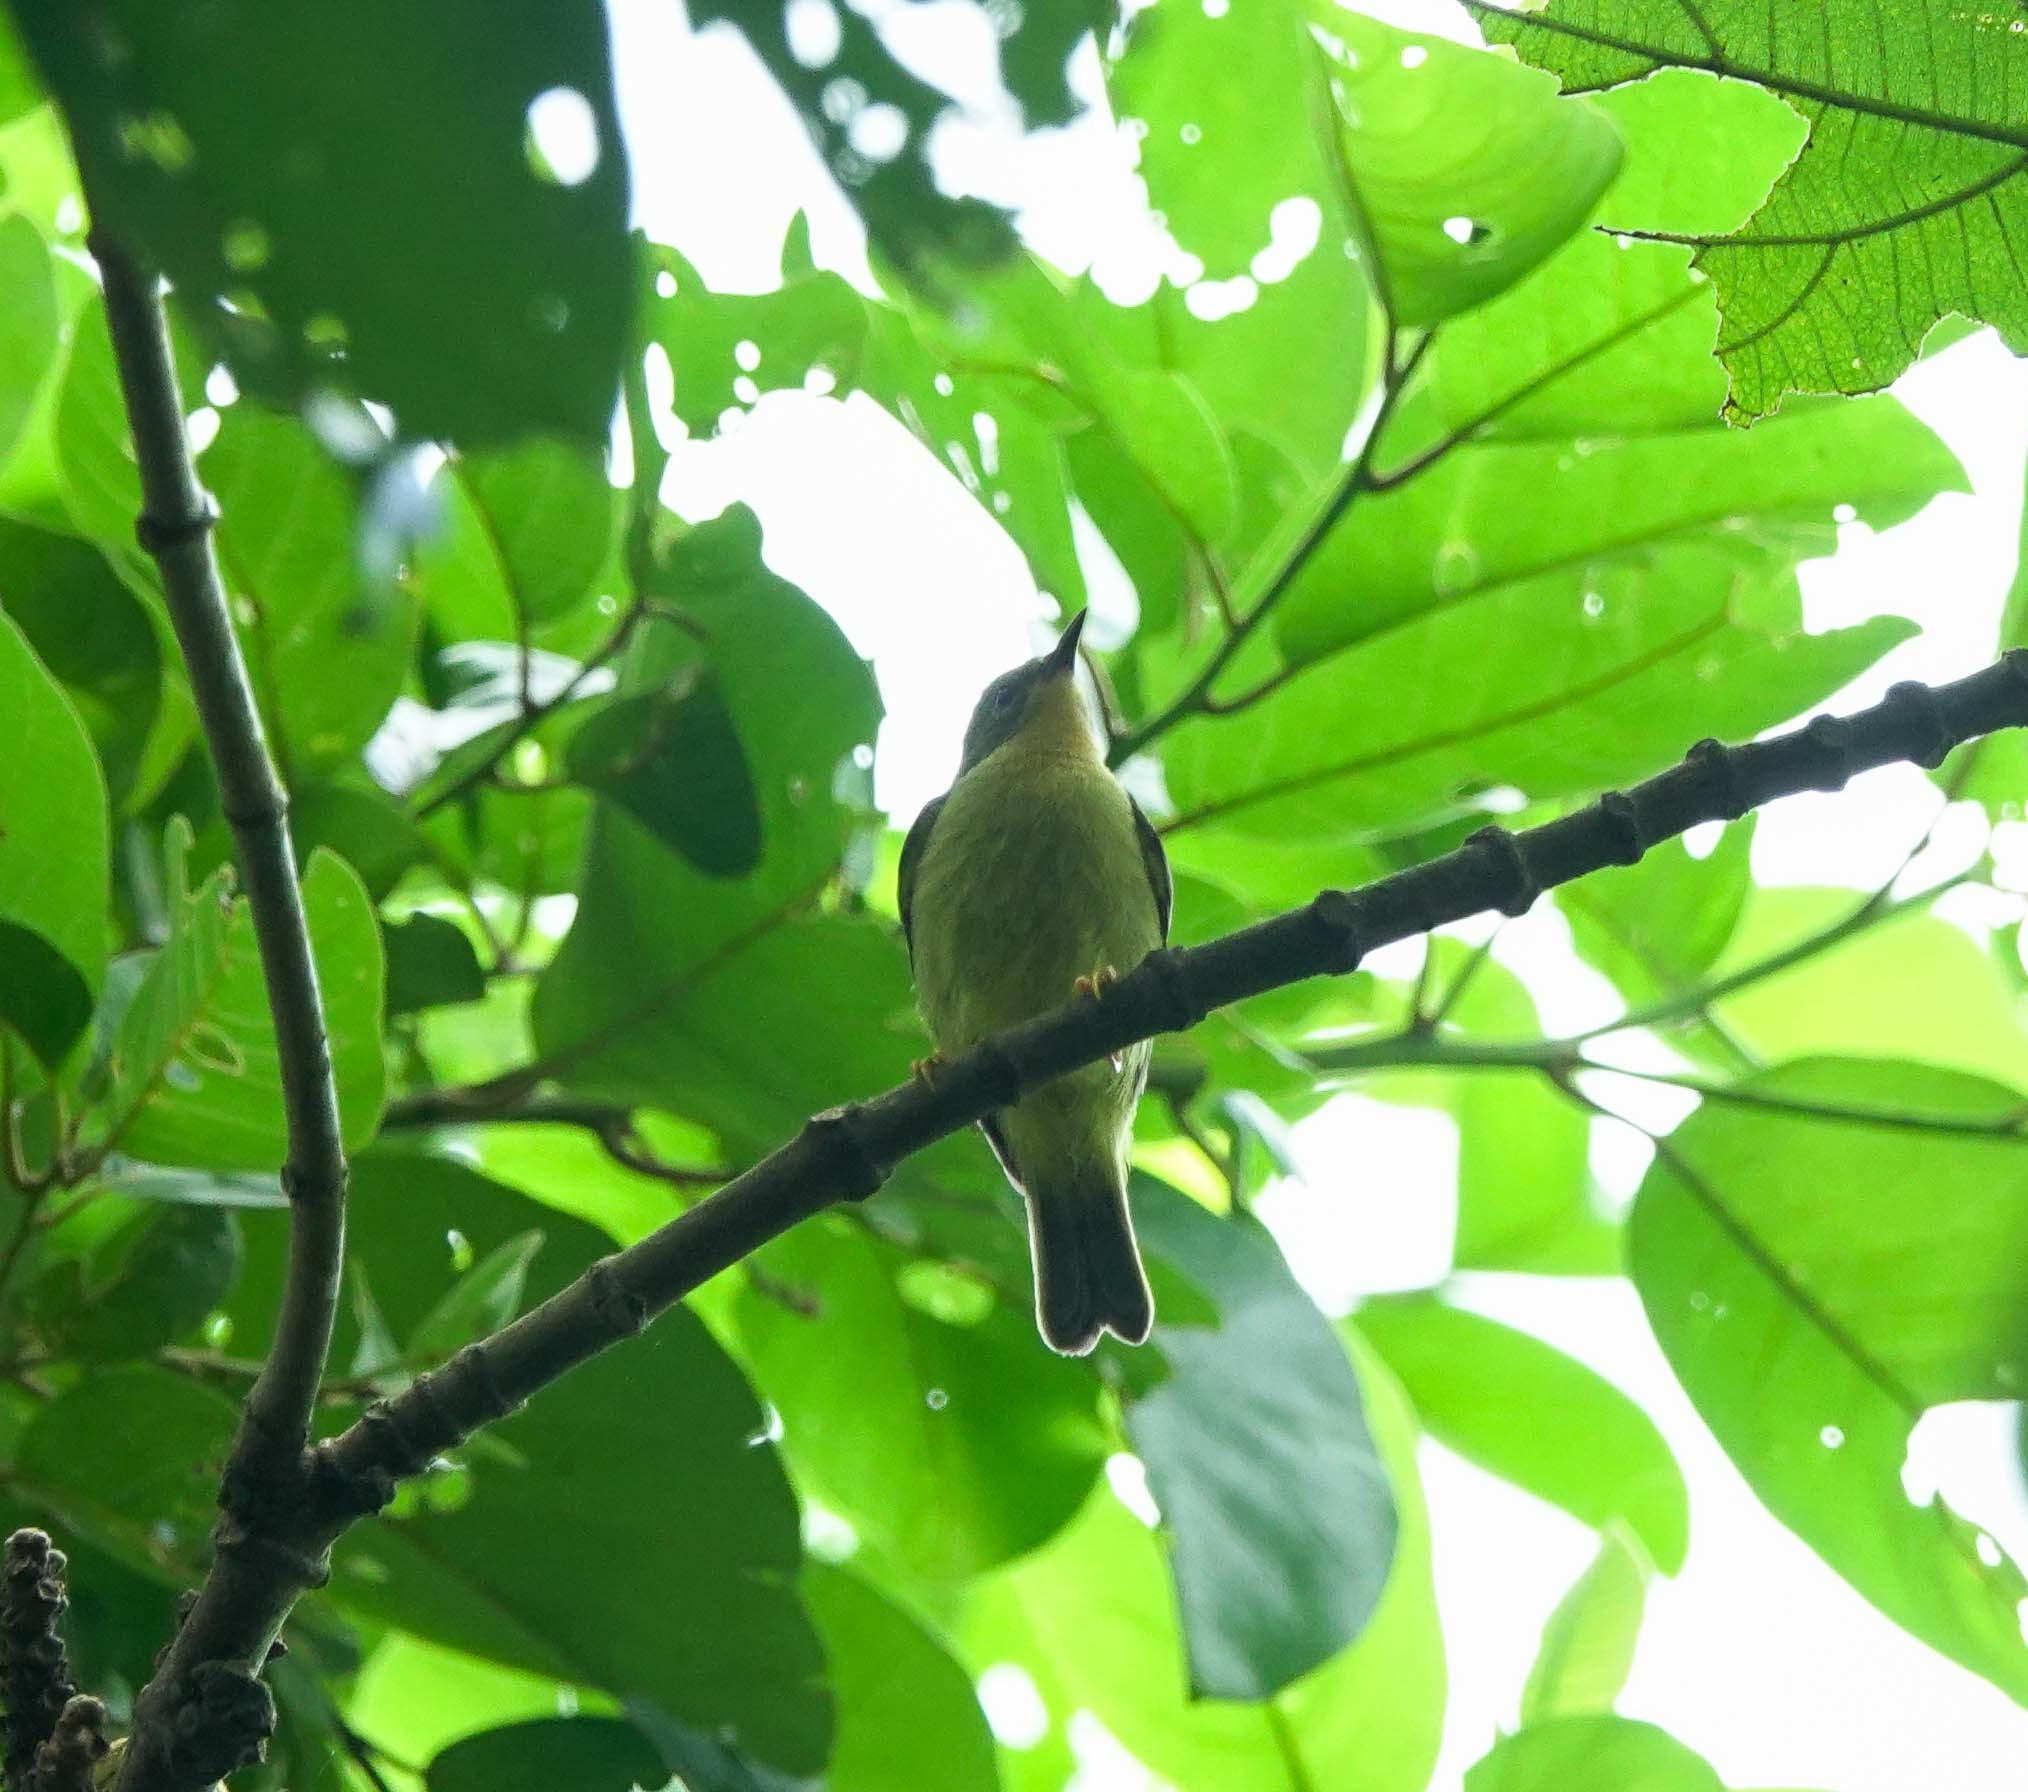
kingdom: Animalia
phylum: Chordata
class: Aves
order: Passeriformes
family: Nectariniidae
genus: Chalcoparia
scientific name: Chalcoparia singalensis
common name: Ruby-cheeked sunbird
